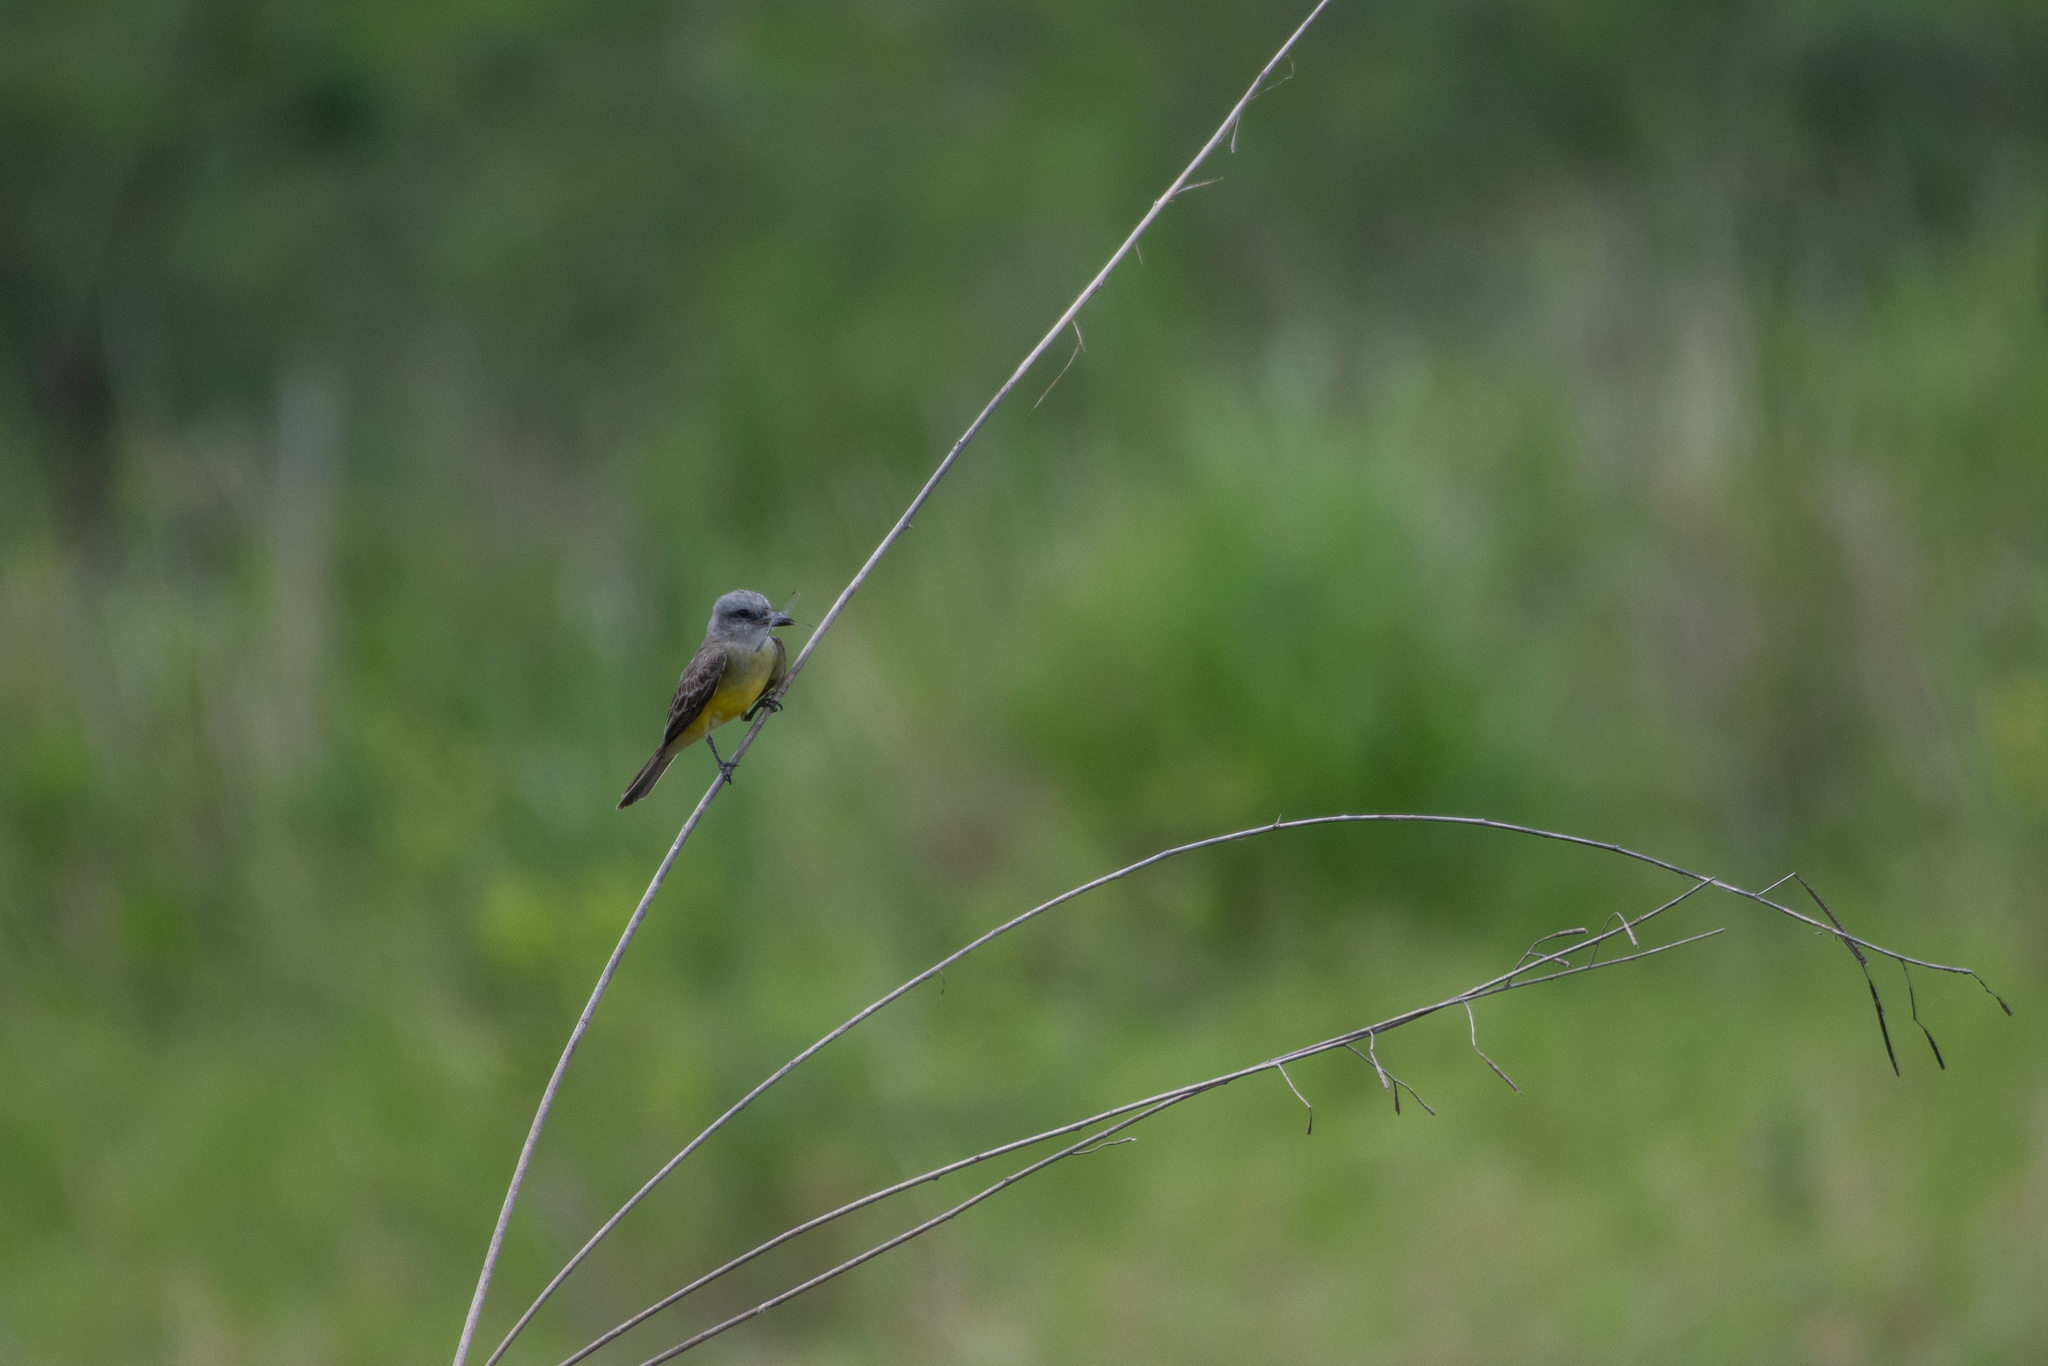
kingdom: Animalia
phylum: Chordata
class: Aves
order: Passeriformes
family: Tyrannidae
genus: Tyrannus
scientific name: Tyrannus melancholicus
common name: Tropical kingbird
